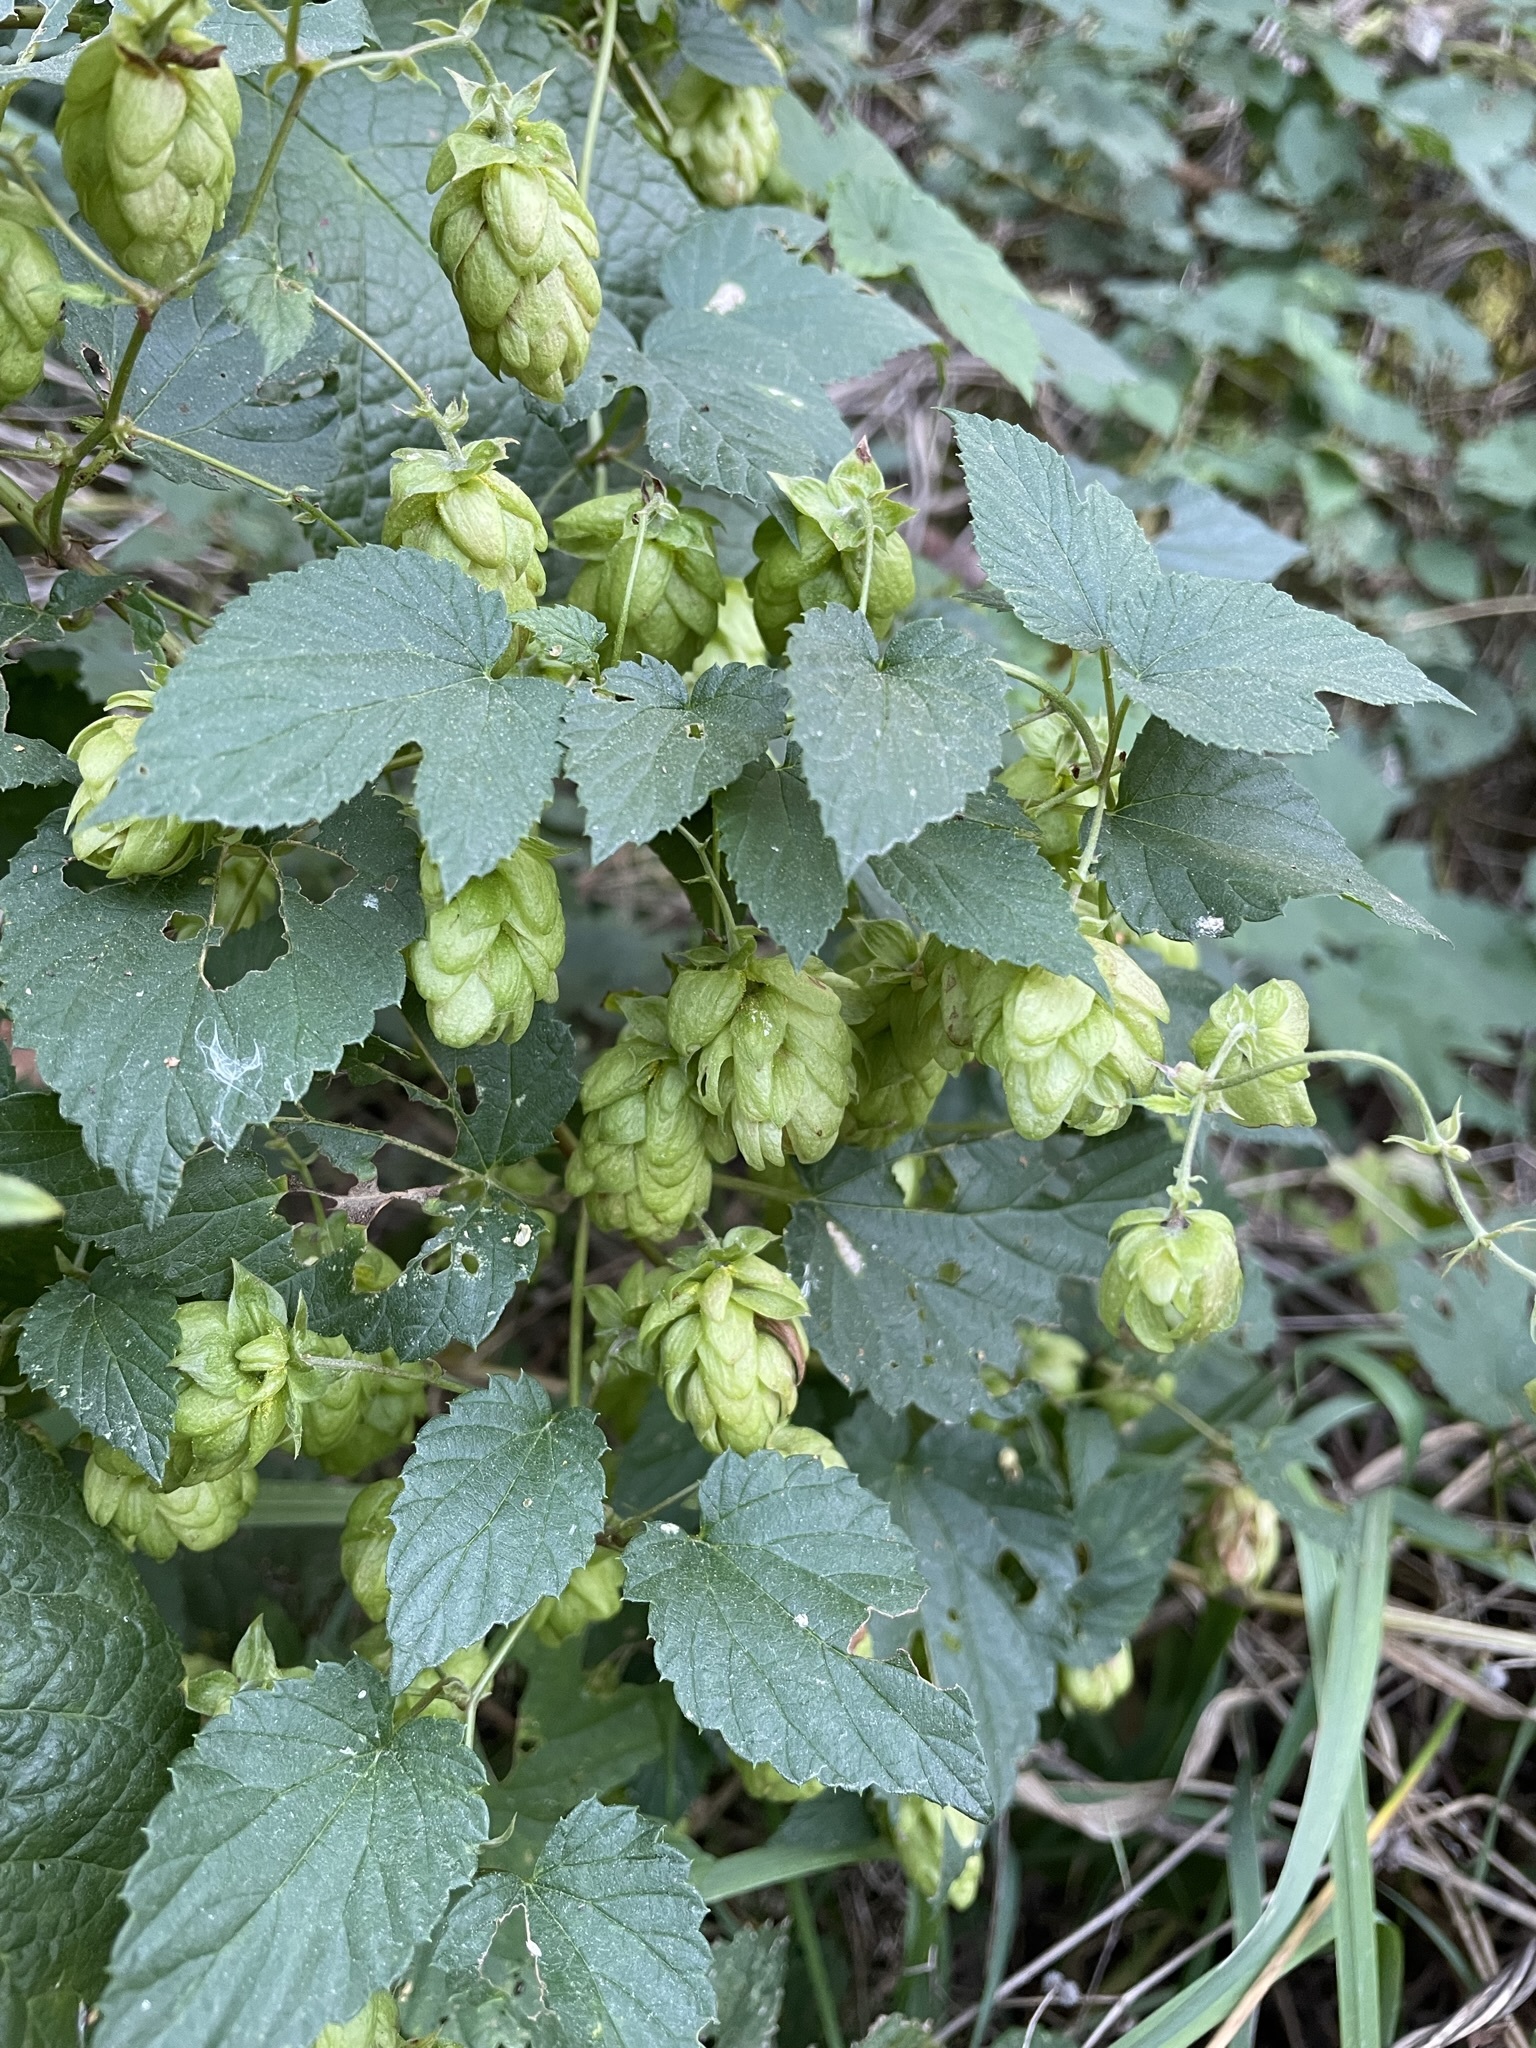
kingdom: Plantae
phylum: Tracheophyta
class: Magnoliopsida
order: Rosales
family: Cannabaceae
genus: Humulus
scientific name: Humulus lupulus
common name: Hop
